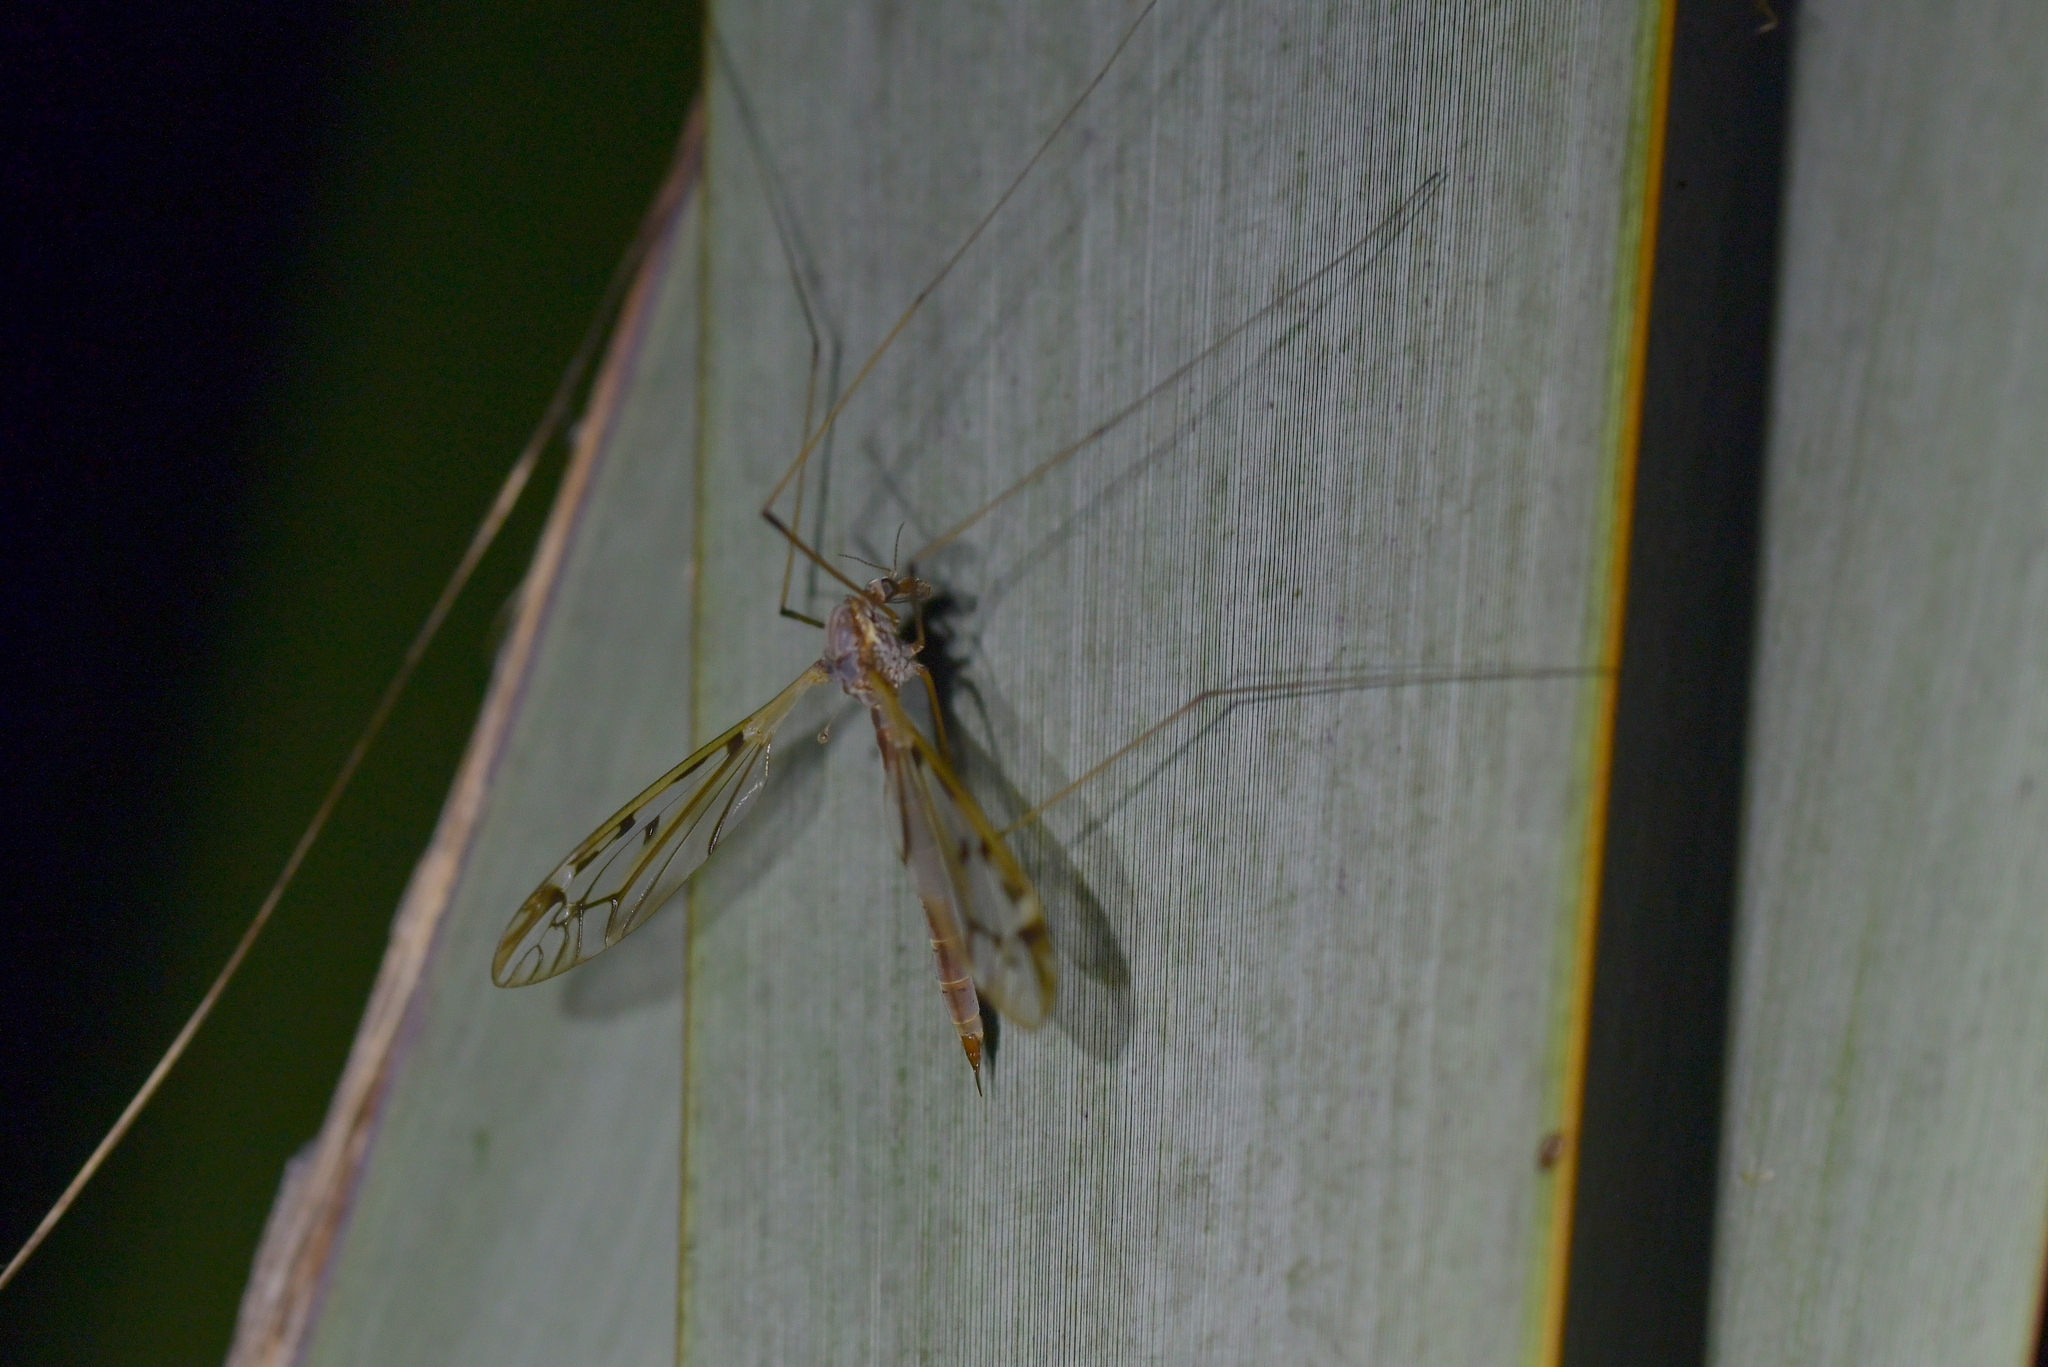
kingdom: Animalia
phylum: Arthropoda
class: Insecta
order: Diptera
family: Tipulidae
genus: Zelandotipula
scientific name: Zelandotipula novarae
